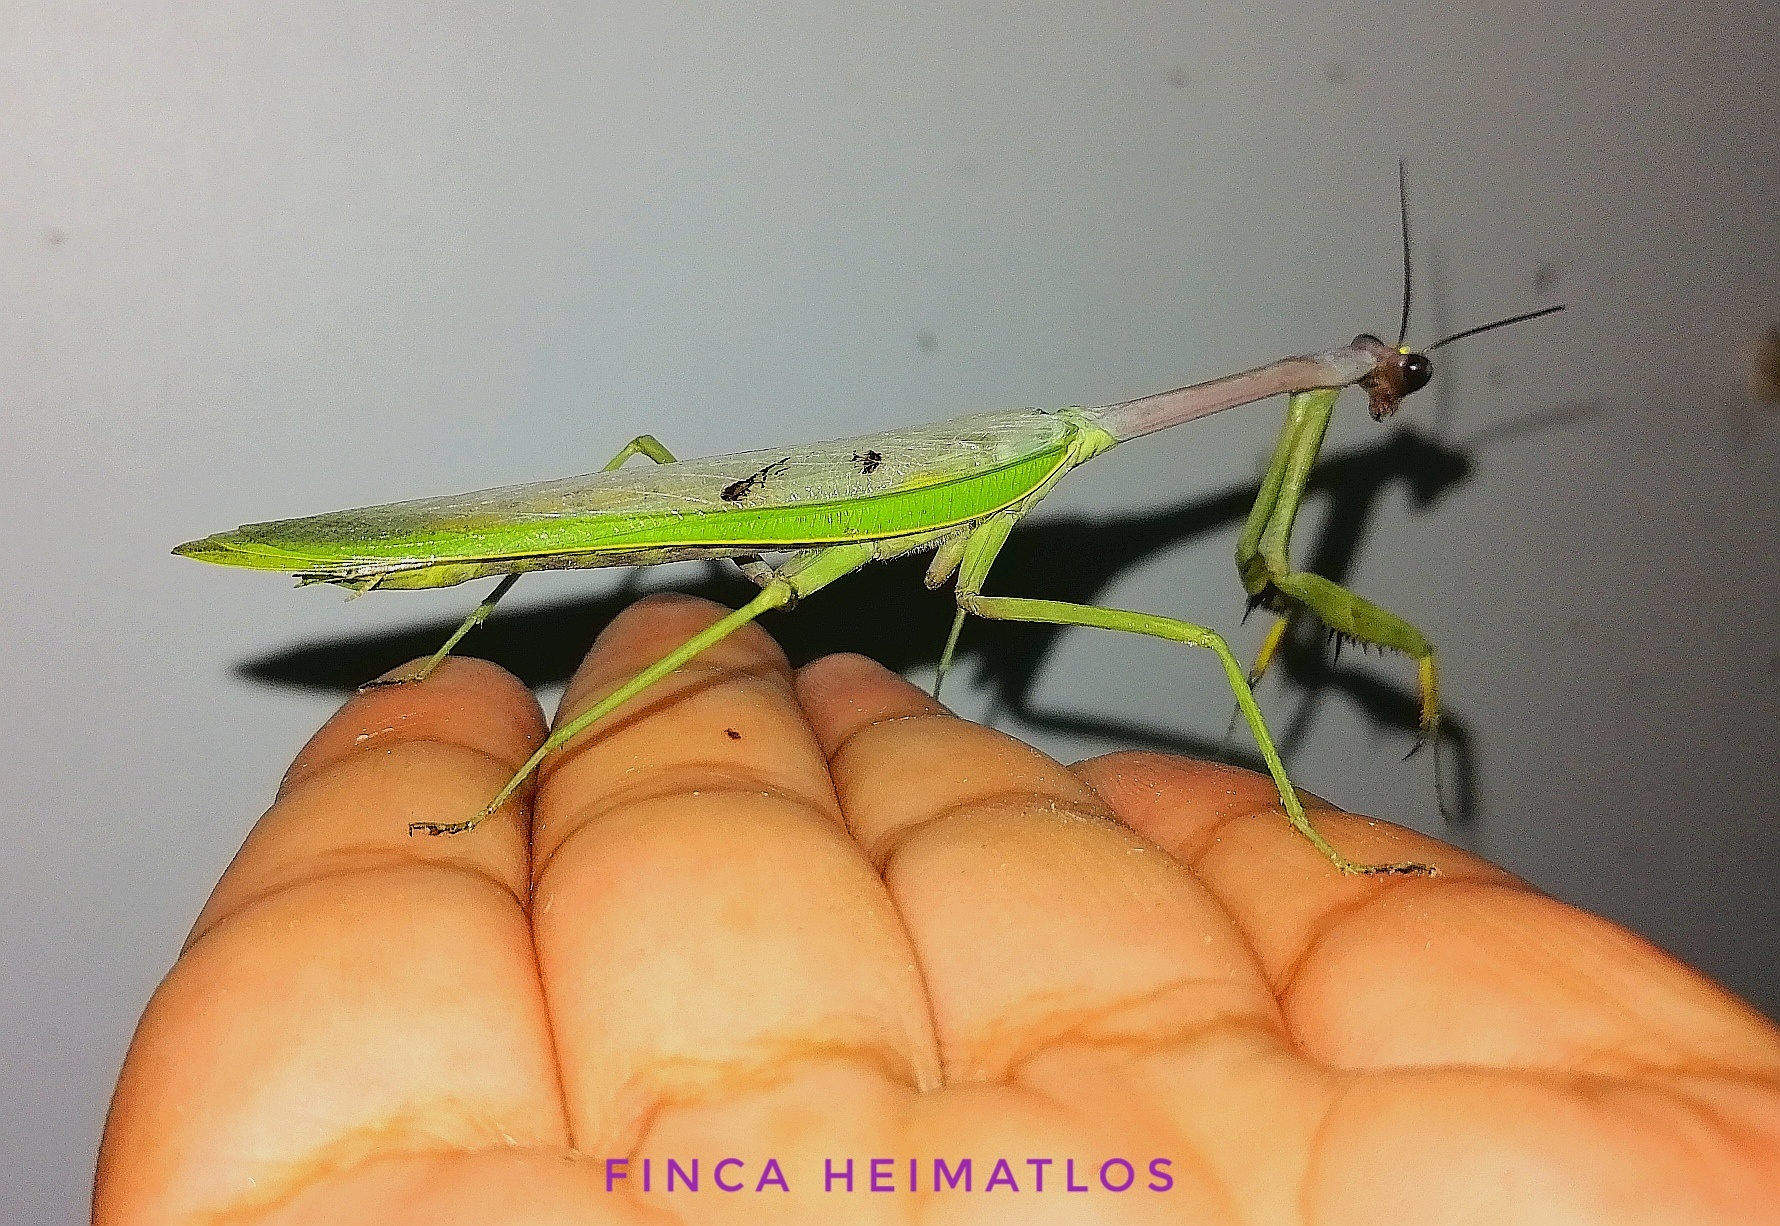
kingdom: Animalia
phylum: Arthropoda
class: Insecta
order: Mantodea
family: Mantidae
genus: Stagmatoptera
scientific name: Stagmatoptera supplicaria
